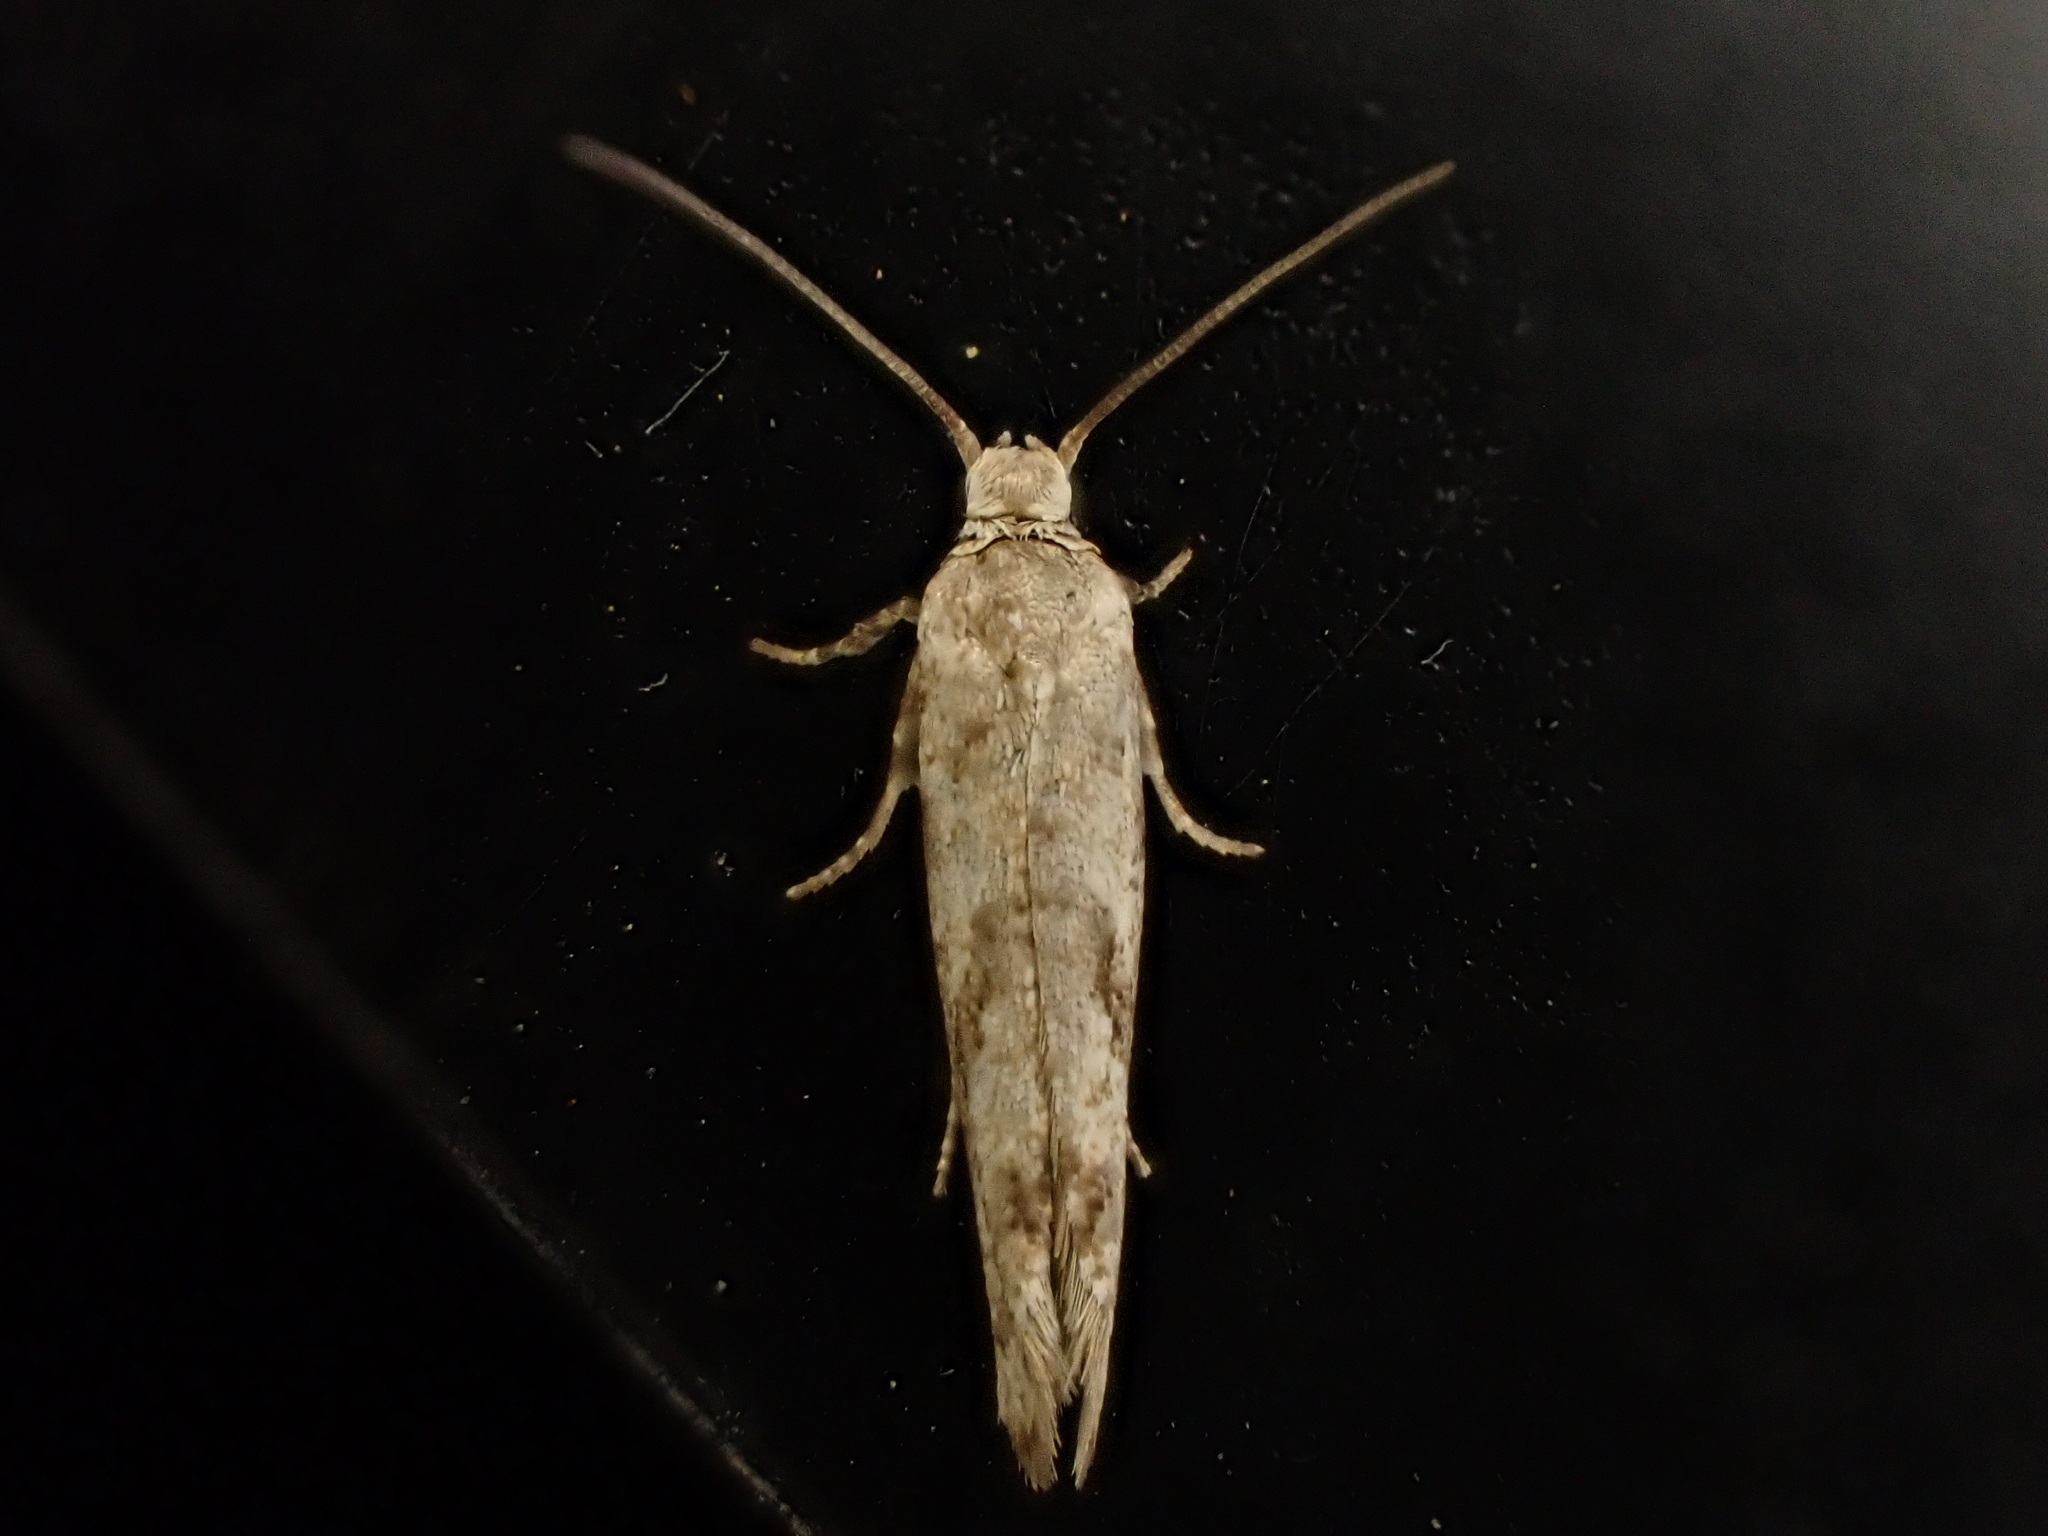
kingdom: Animalia
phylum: Arthropoda
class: Insecta
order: Lepidoptera
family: Praydidae
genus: Prays
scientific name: Prays nephelomima
